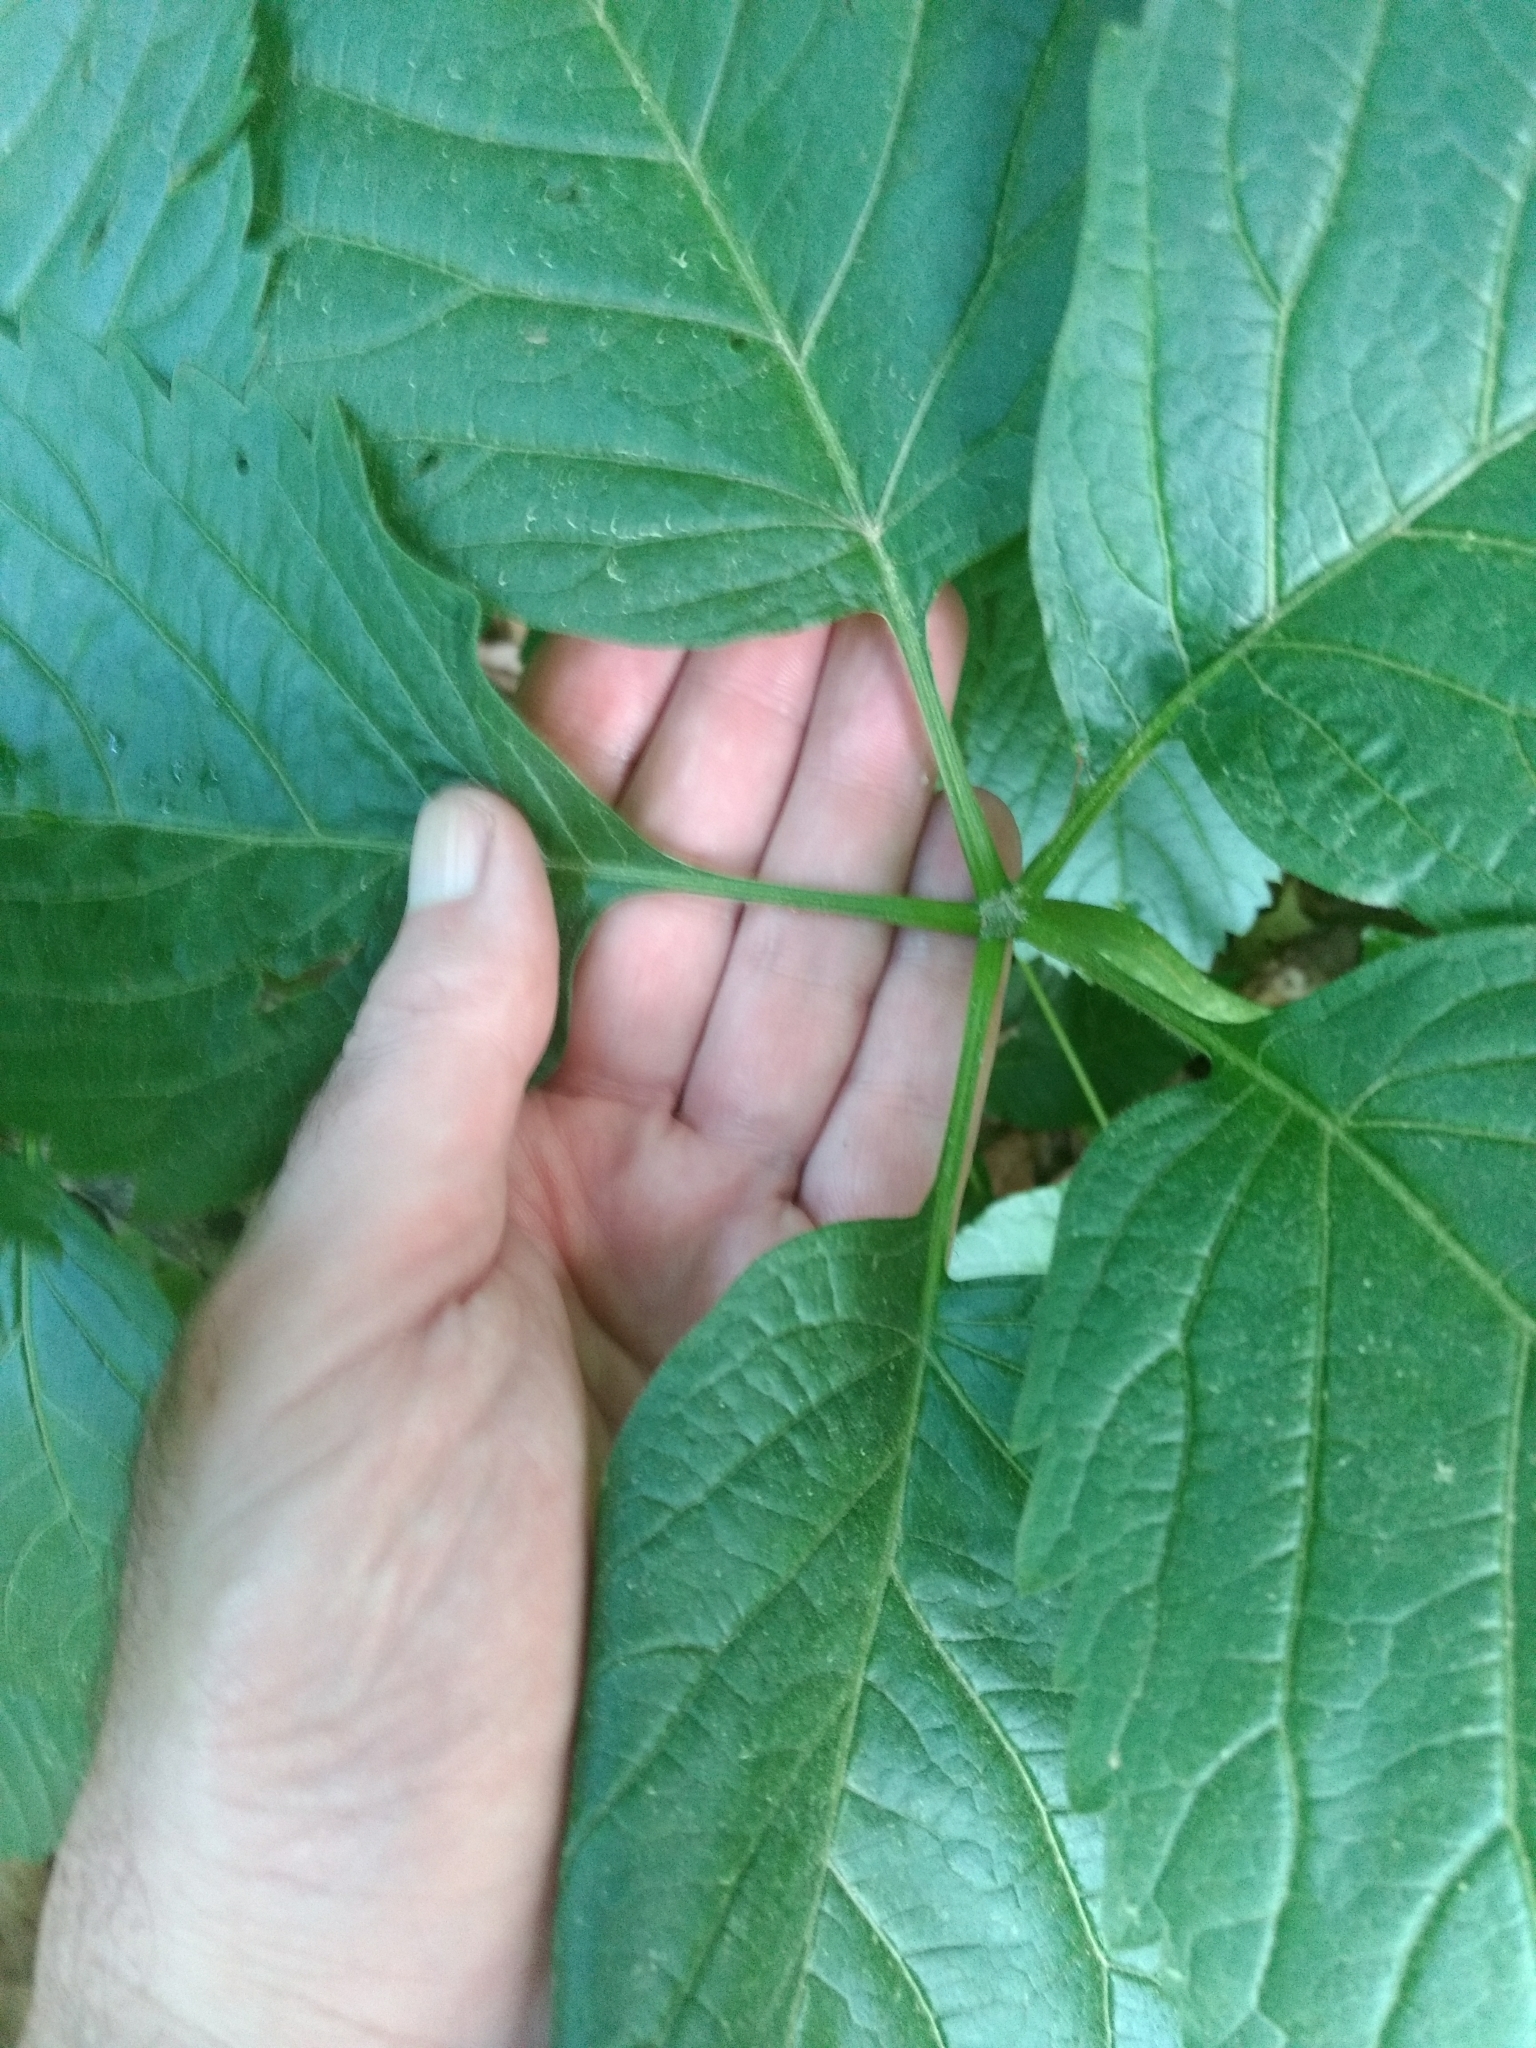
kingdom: Plantae
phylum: Tracheophyta
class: Magnoliopsida
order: Vitales
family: Vitaceae
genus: Parthenocissus
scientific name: Parthenocissus inserta
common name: False virginia-creeper
